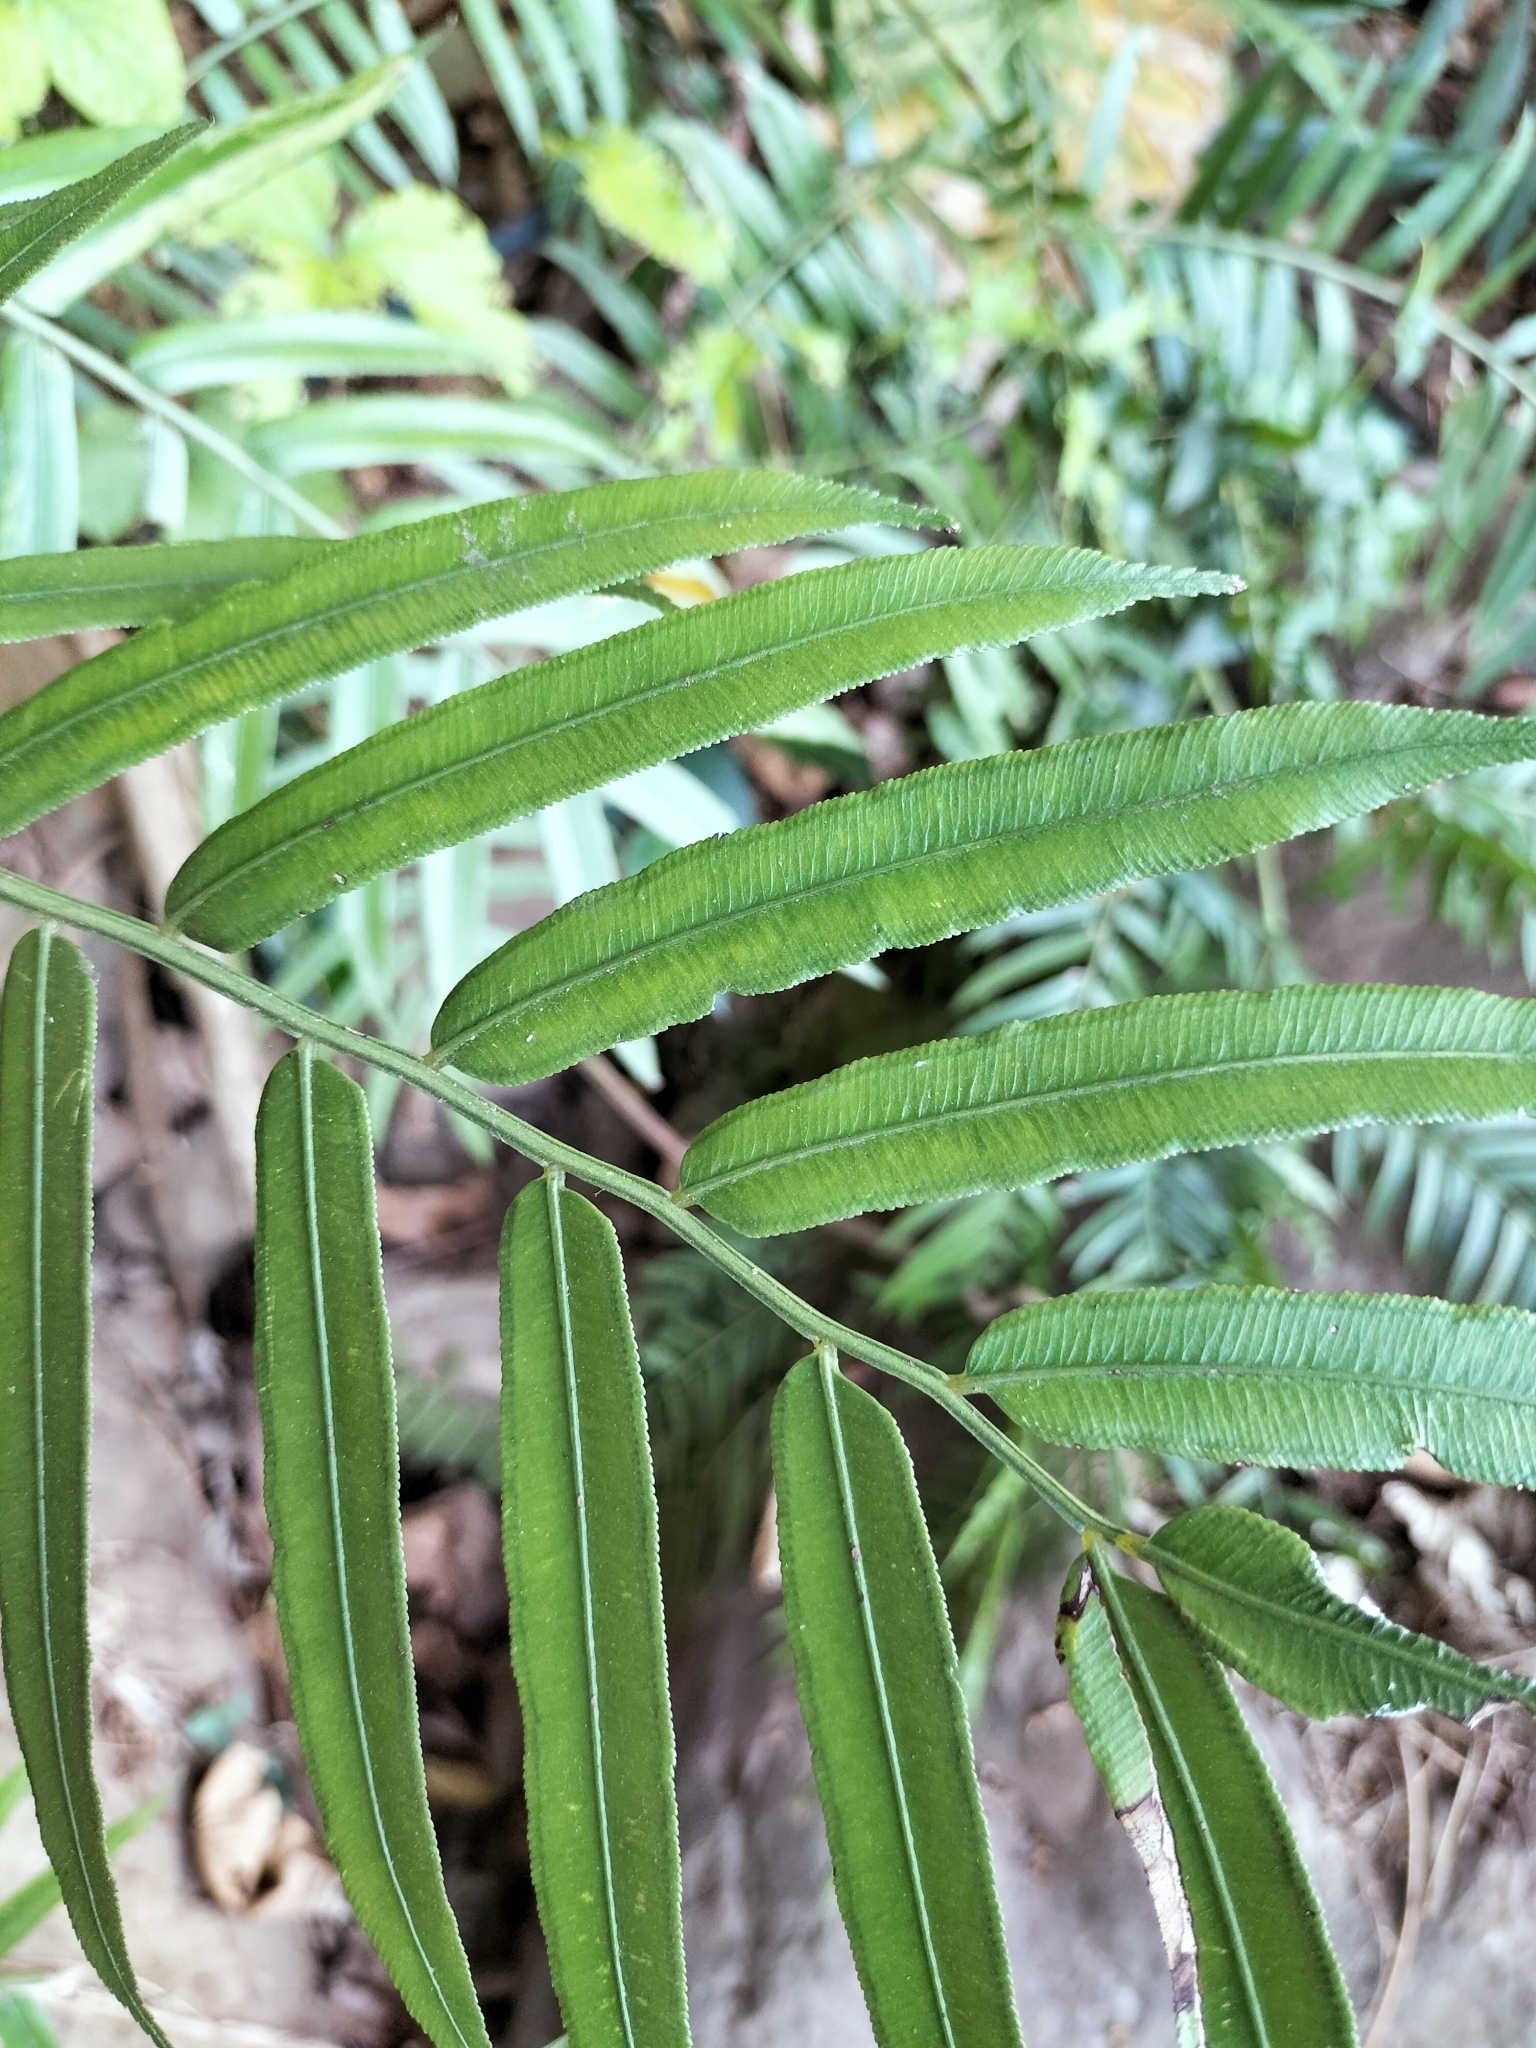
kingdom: Plantae
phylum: Tracheophyta
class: Polypodiopsida
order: Marattiales
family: Marattiaceae
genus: Angiopteris
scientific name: Angiopteris lygodiifolia
